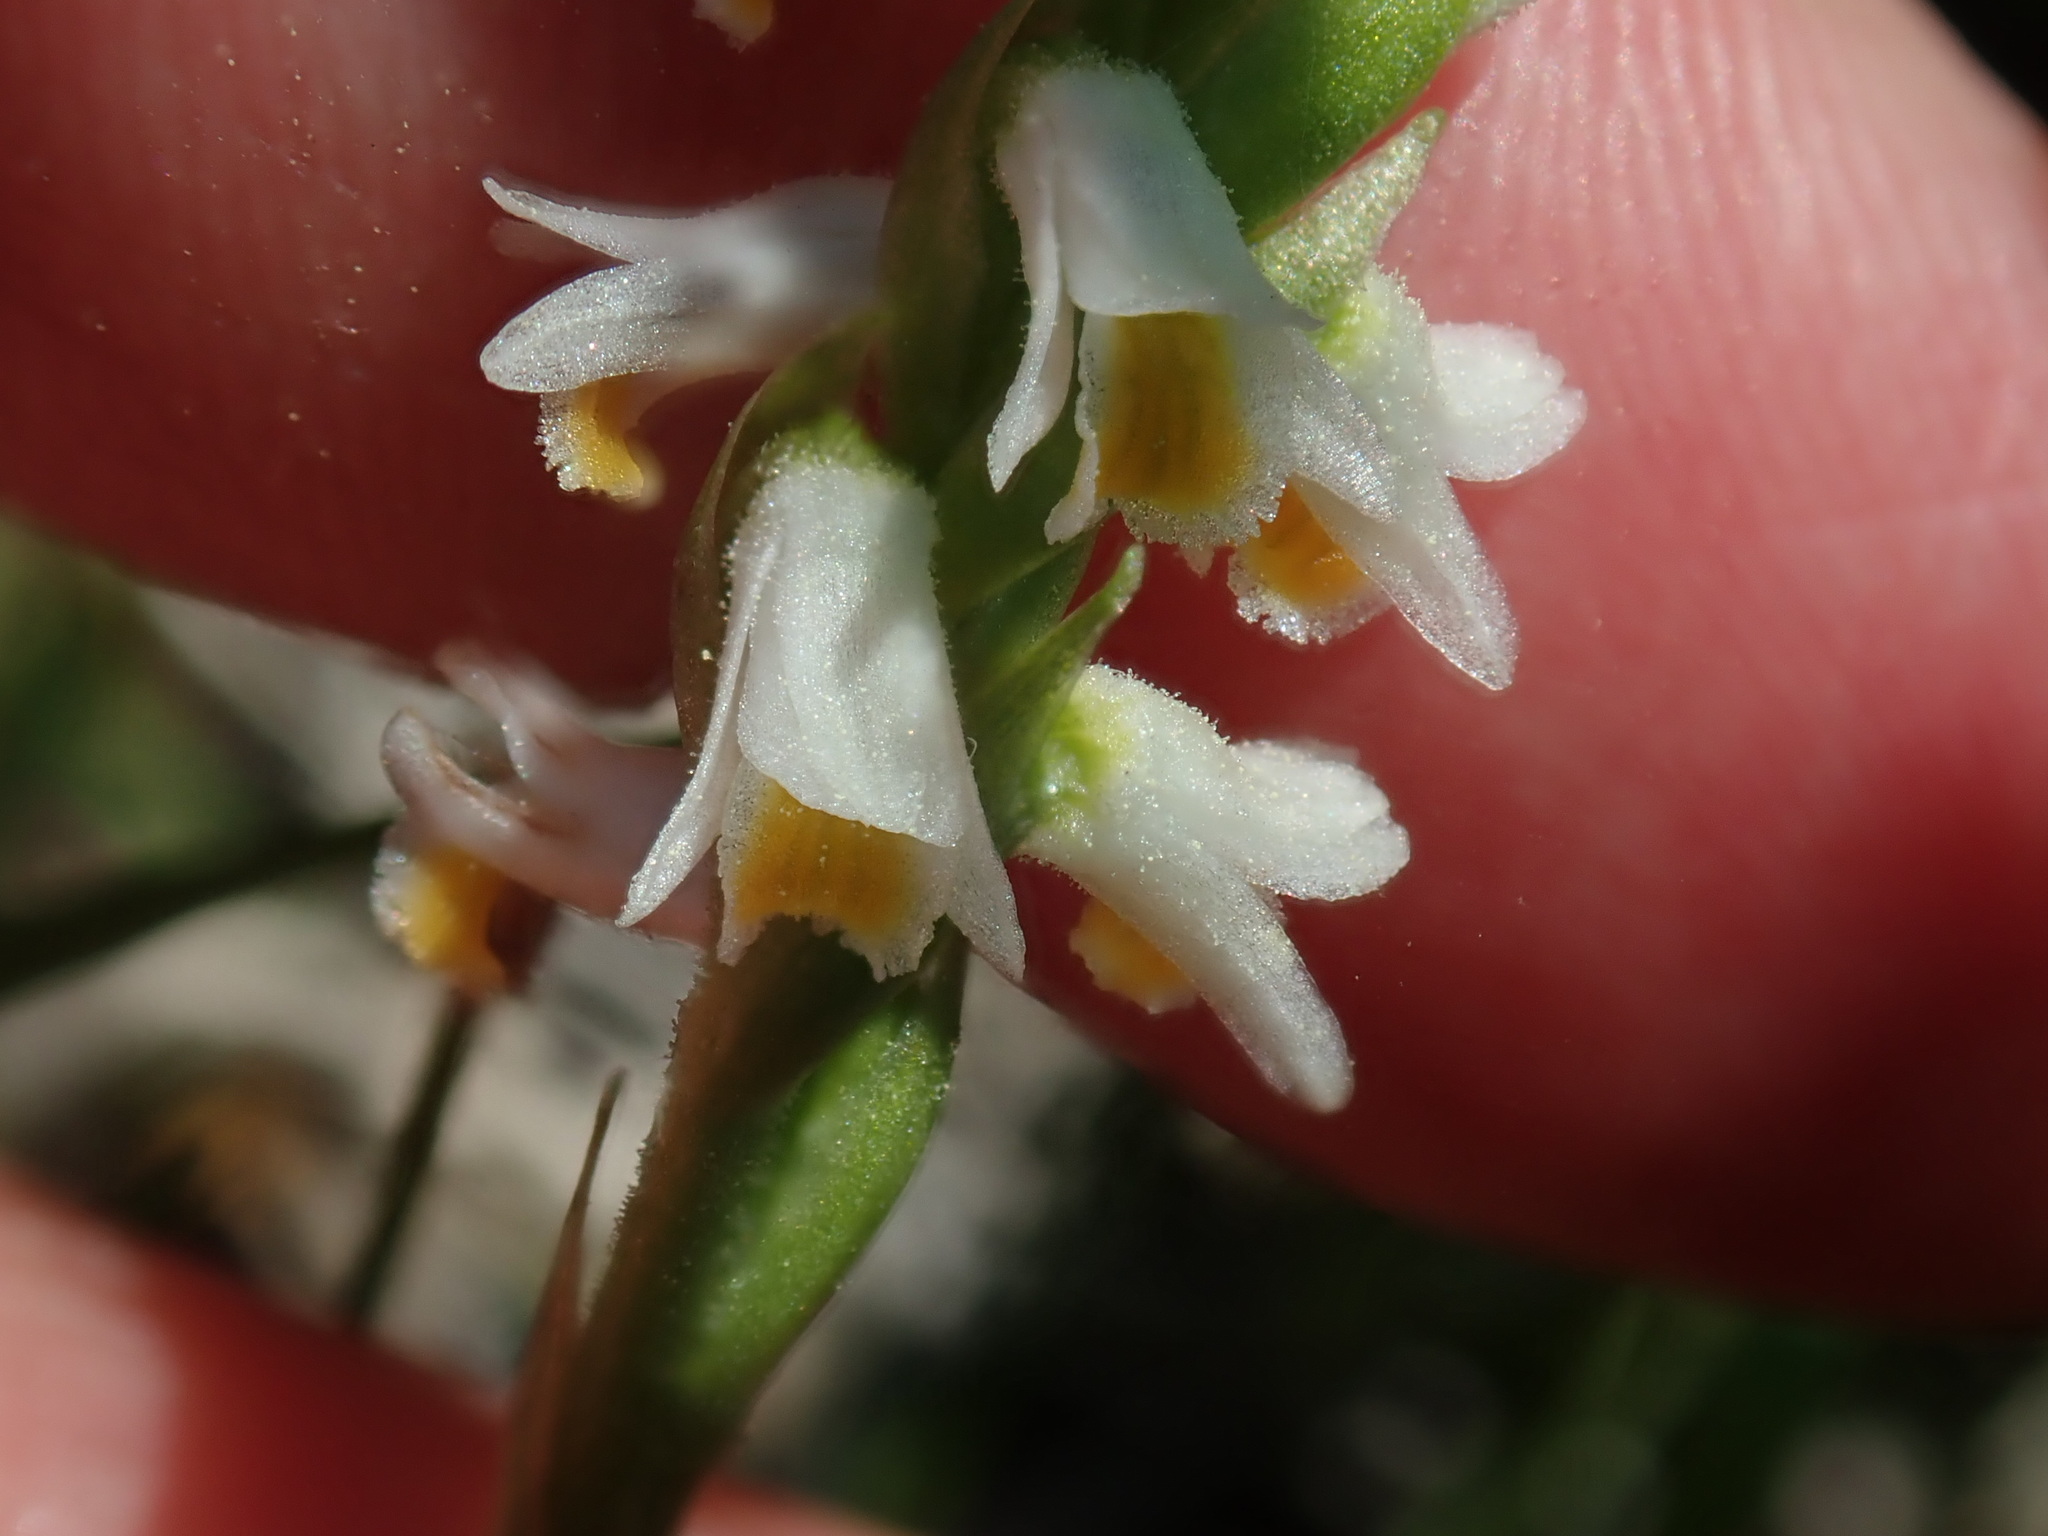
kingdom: Plantae
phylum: Tracheophyta
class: Liliopsida
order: Asparagales
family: Orchidaceae
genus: Spiranthes
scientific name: Spiranthes lucida
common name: Broad-leaved ladies'-tresses
